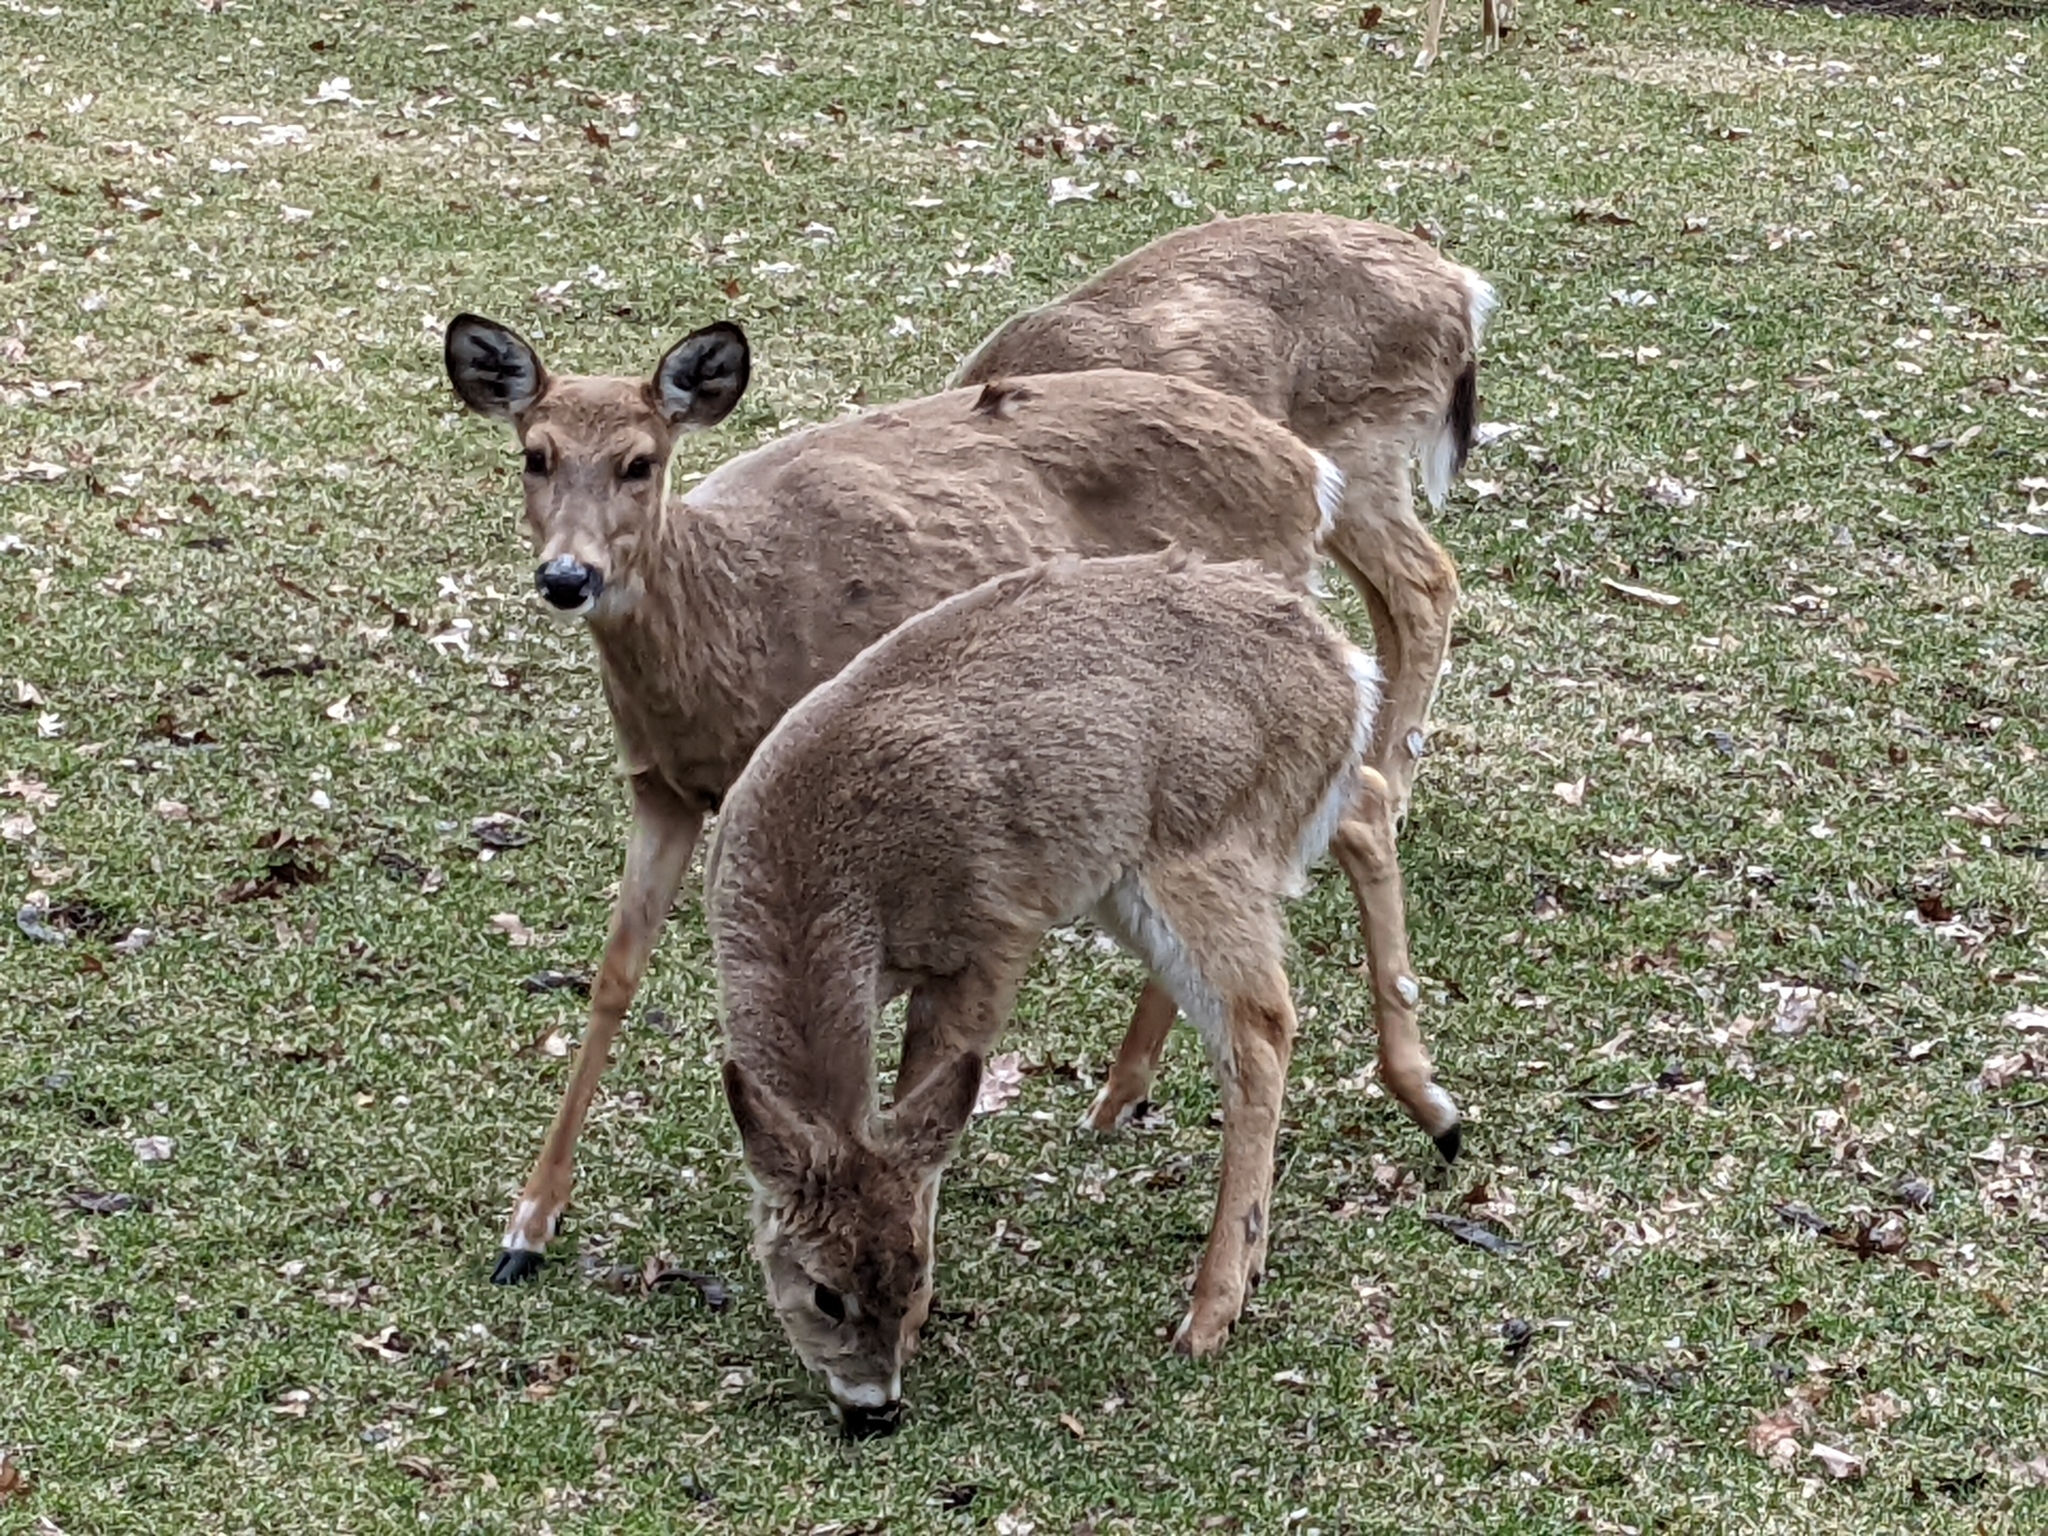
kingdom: Animalia
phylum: Chordata
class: Mammalia
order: Artiodactyla
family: Cervidae
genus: Odocoileus
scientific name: Odocoileus virginianus
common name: White-tailed deer
